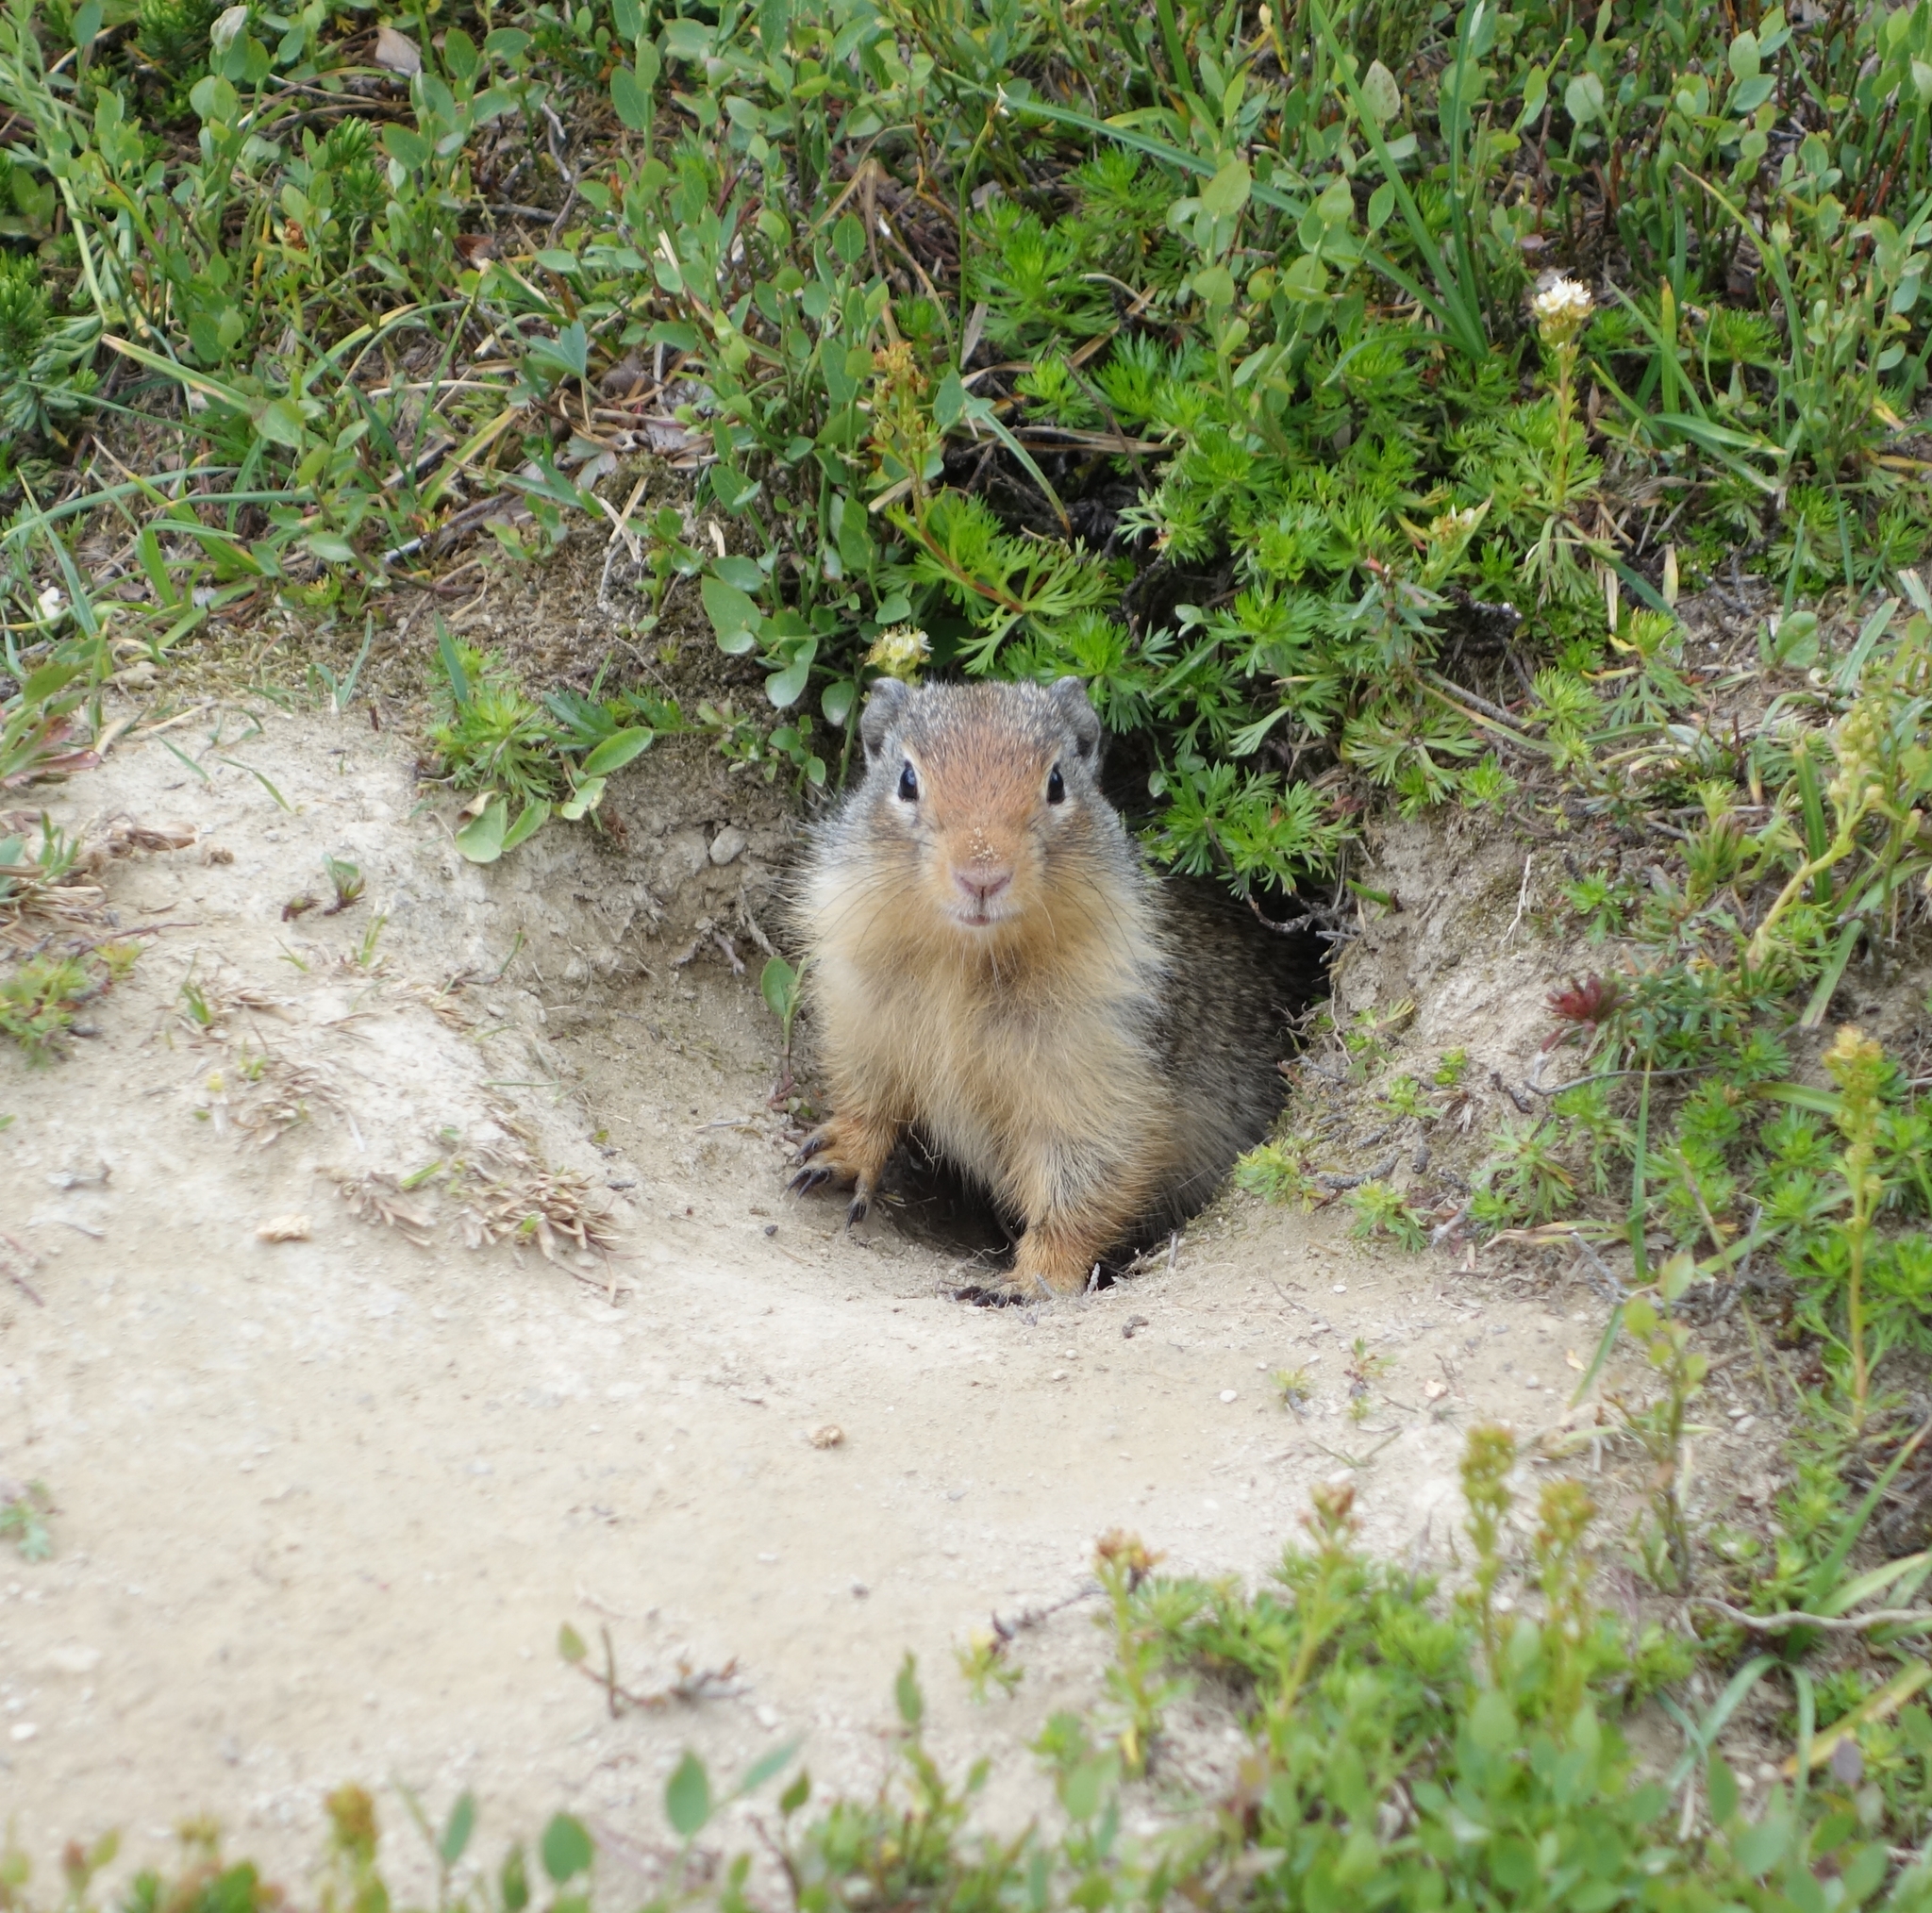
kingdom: Animalia
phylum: Chordata
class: Mammalia
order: Rodentia
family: Sciuridae
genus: Urocitellus
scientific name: Urocitellus columbianus
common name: Columbian ground squirrel
